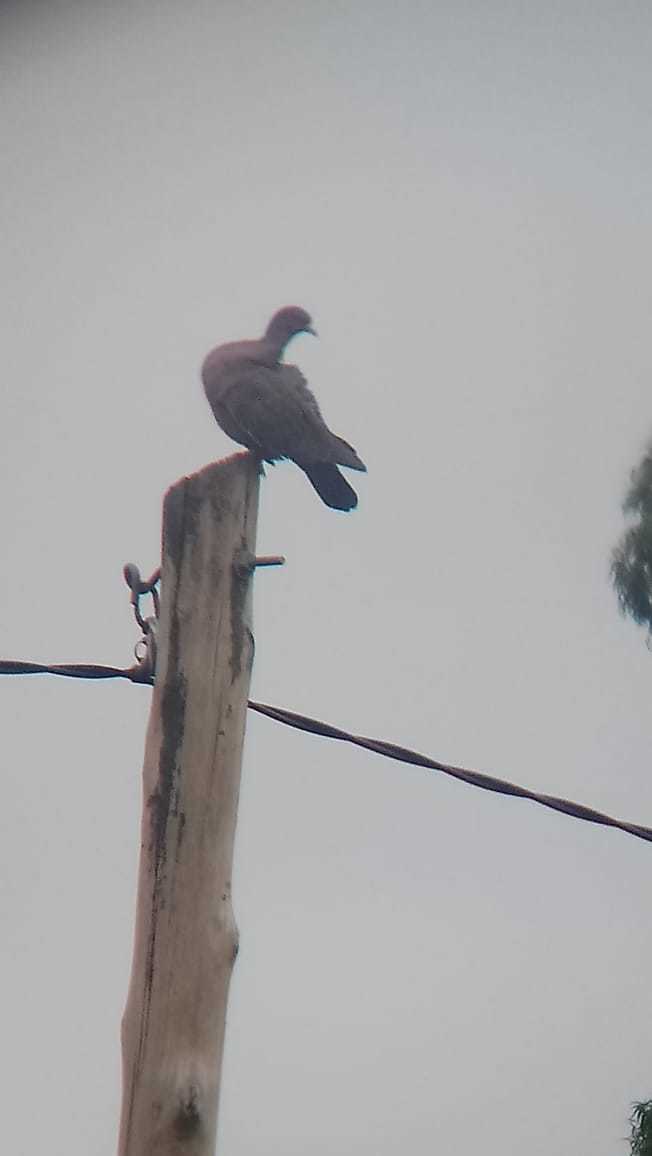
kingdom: Animalia
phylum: Chordata
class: Aves
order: Columbiformes
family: Columbidae
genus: Patagioenas
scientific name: Patagioenas picazuro
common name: Picazuro pigeon
